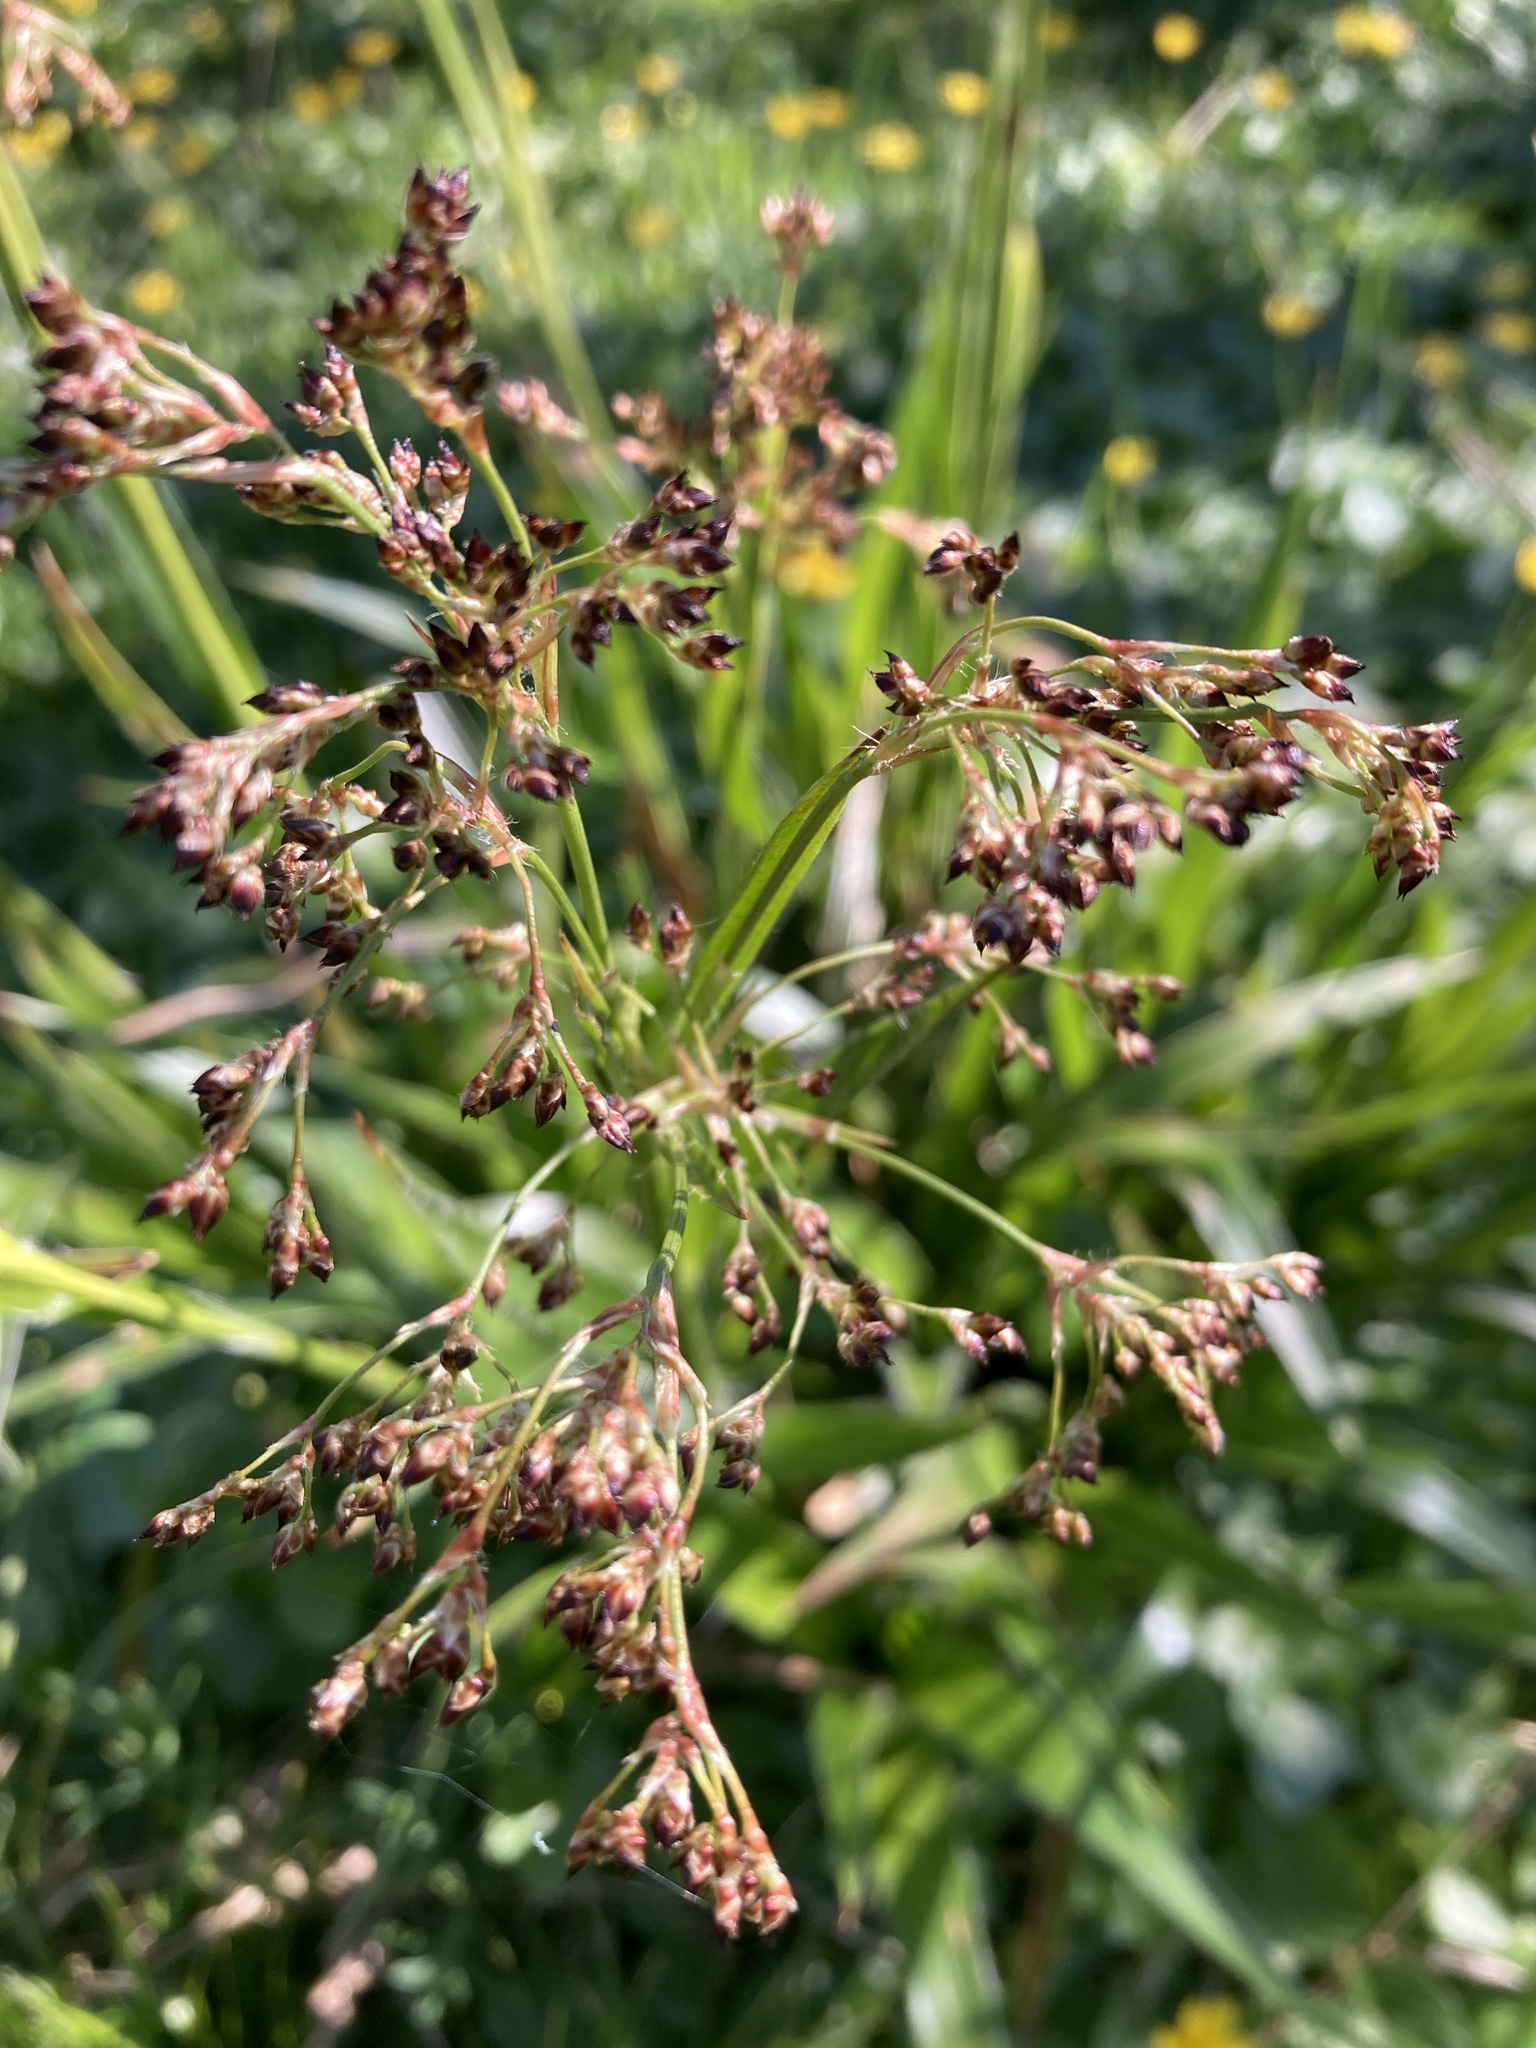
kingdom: Plantae
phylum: Tracheophyta
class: Liliopsida
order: Poales
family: Juncaceae
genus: Luzula
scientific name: Luzula sylvatica
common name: Great wood-rush
